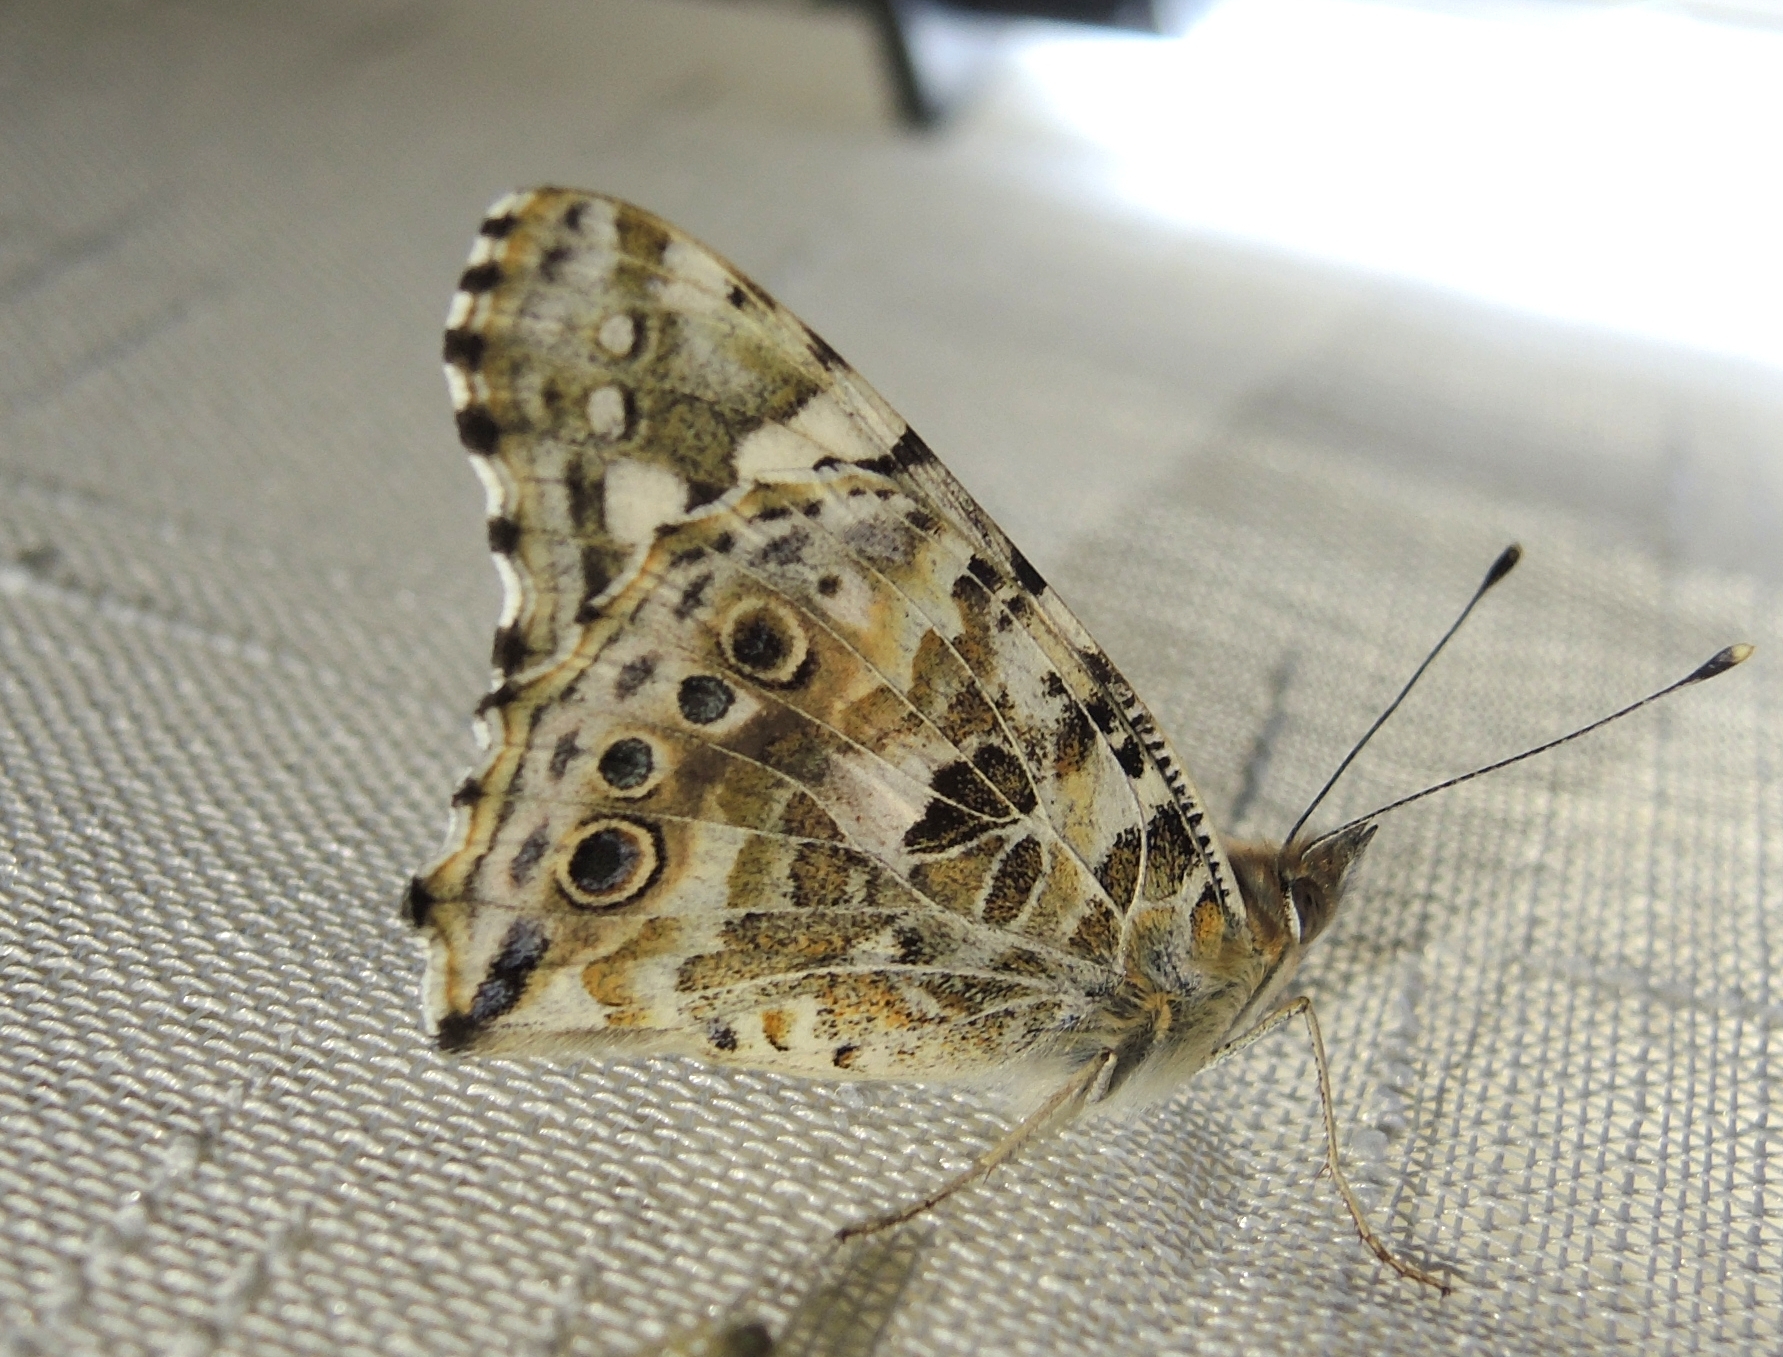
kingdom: Animalia
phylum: Arthropoda
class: Insecta
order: Lepidoptera
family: Nymphalidae
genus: Vanessa
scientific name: Vanessa cardui
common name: Painted lady
